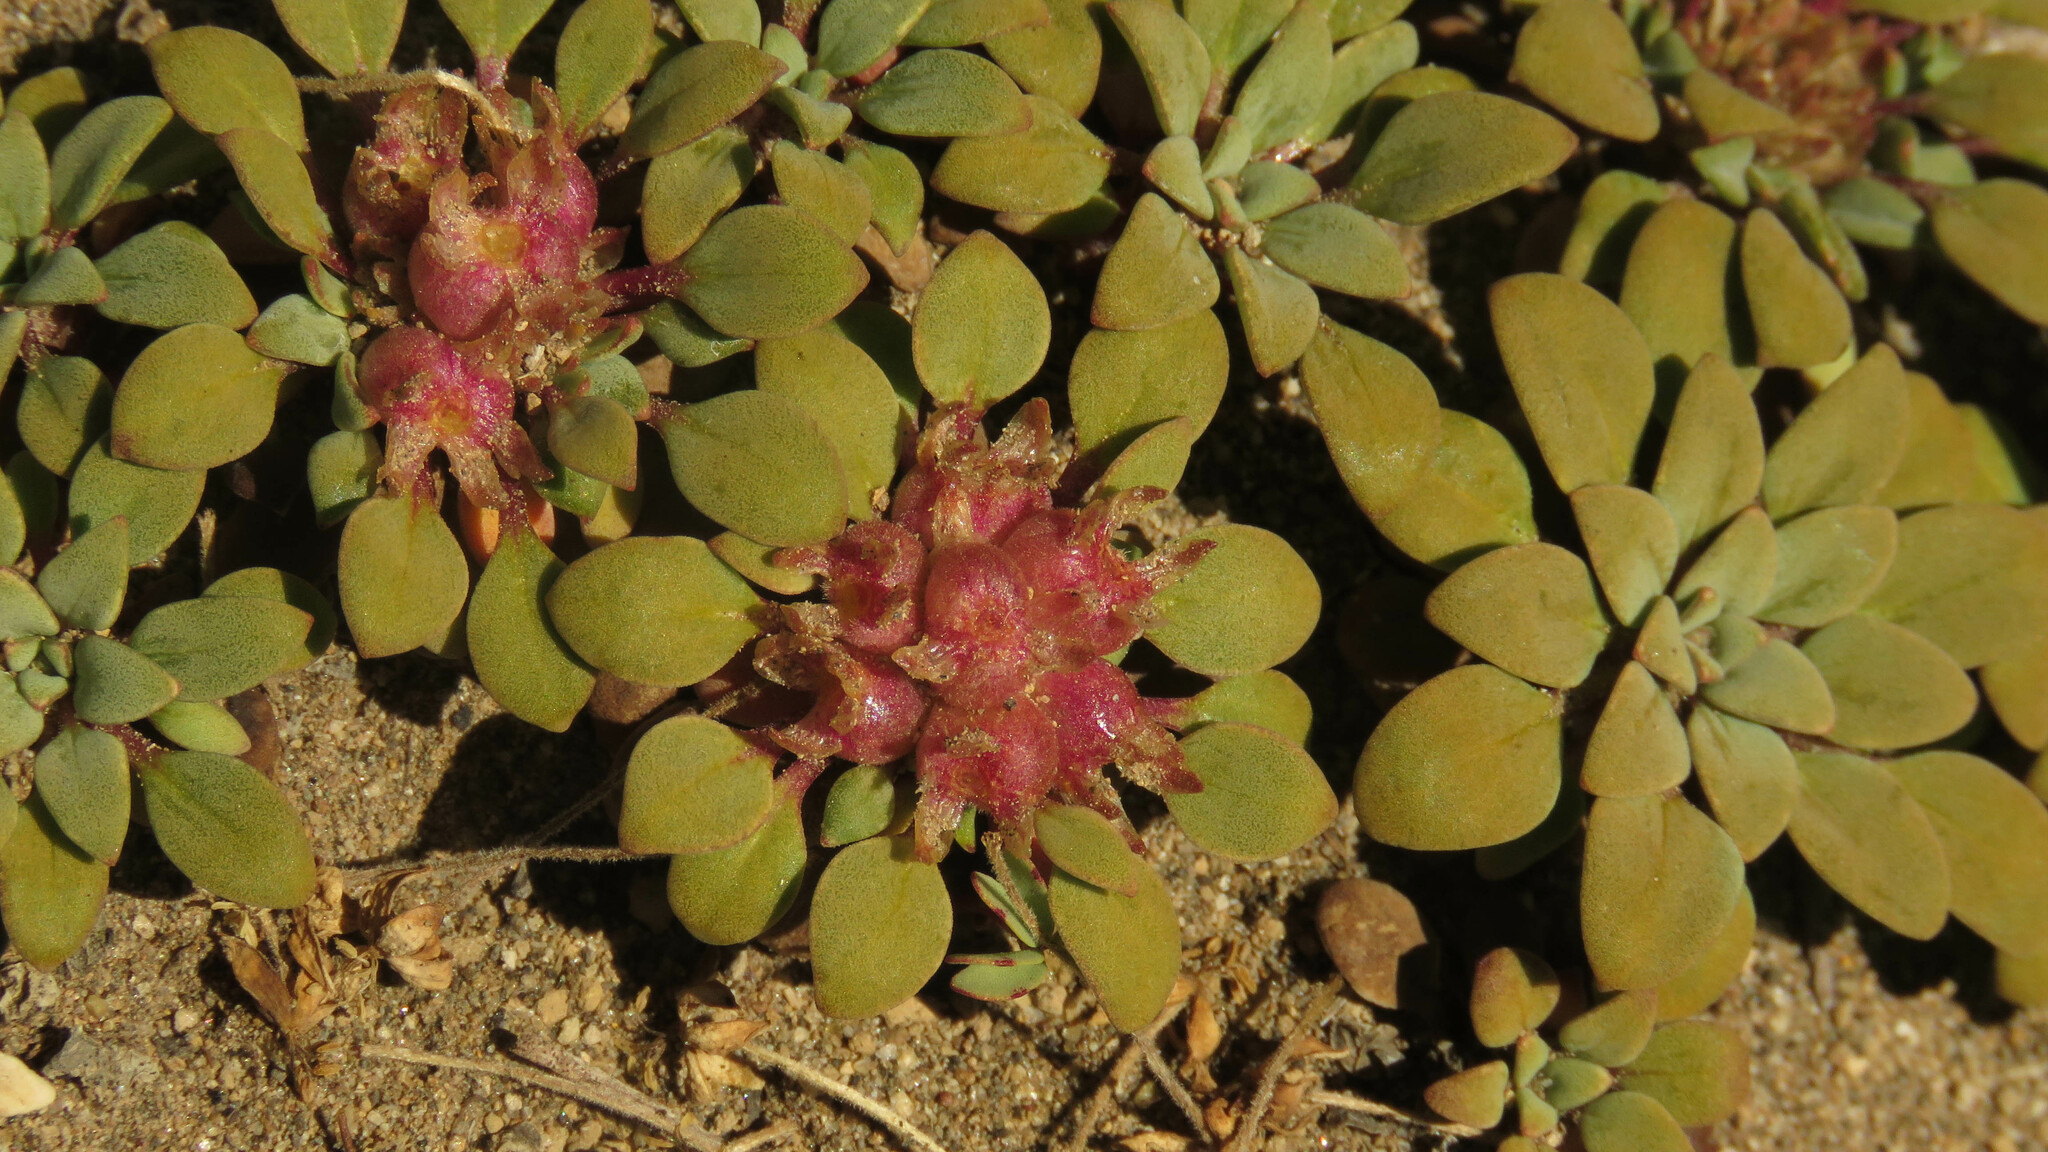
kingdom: Plantae
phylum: Tracheophyta
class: Magnoliopsida
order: Gentianales
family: Rubiaceae
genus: Oreopolus
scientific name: Oreopolus glacialis
